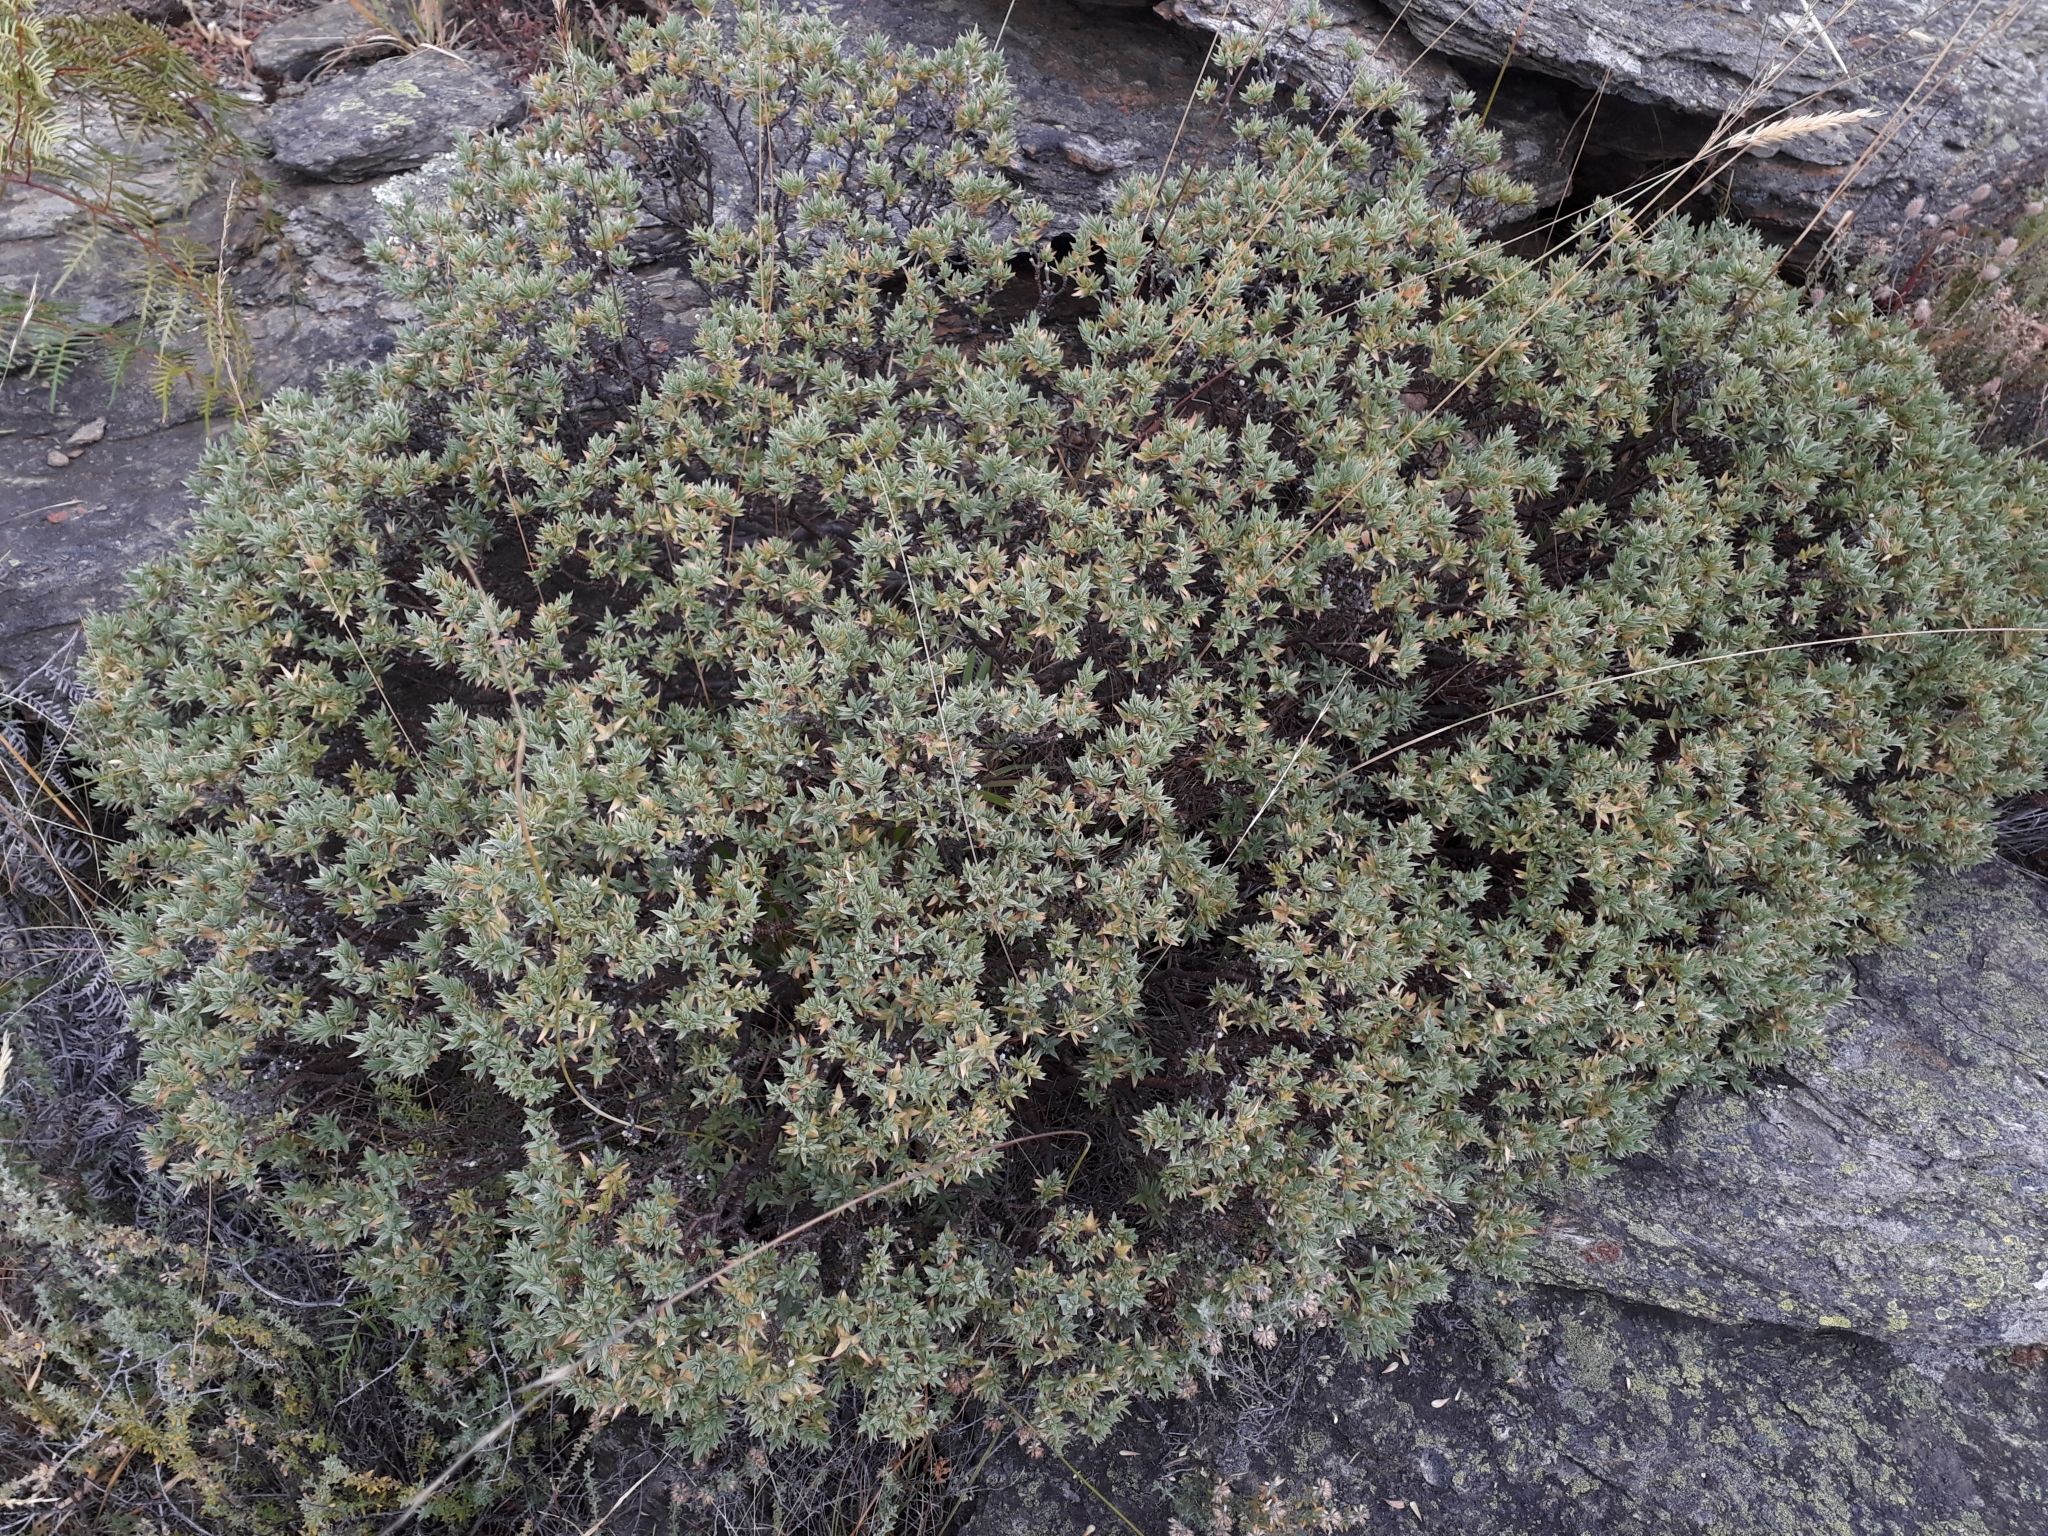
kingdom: Plantae
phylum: Tracheophyta
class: Magnoliopsida
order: Malvales
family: Thymelaeaceae
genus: Pimelea
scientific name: Pimelea aridula
